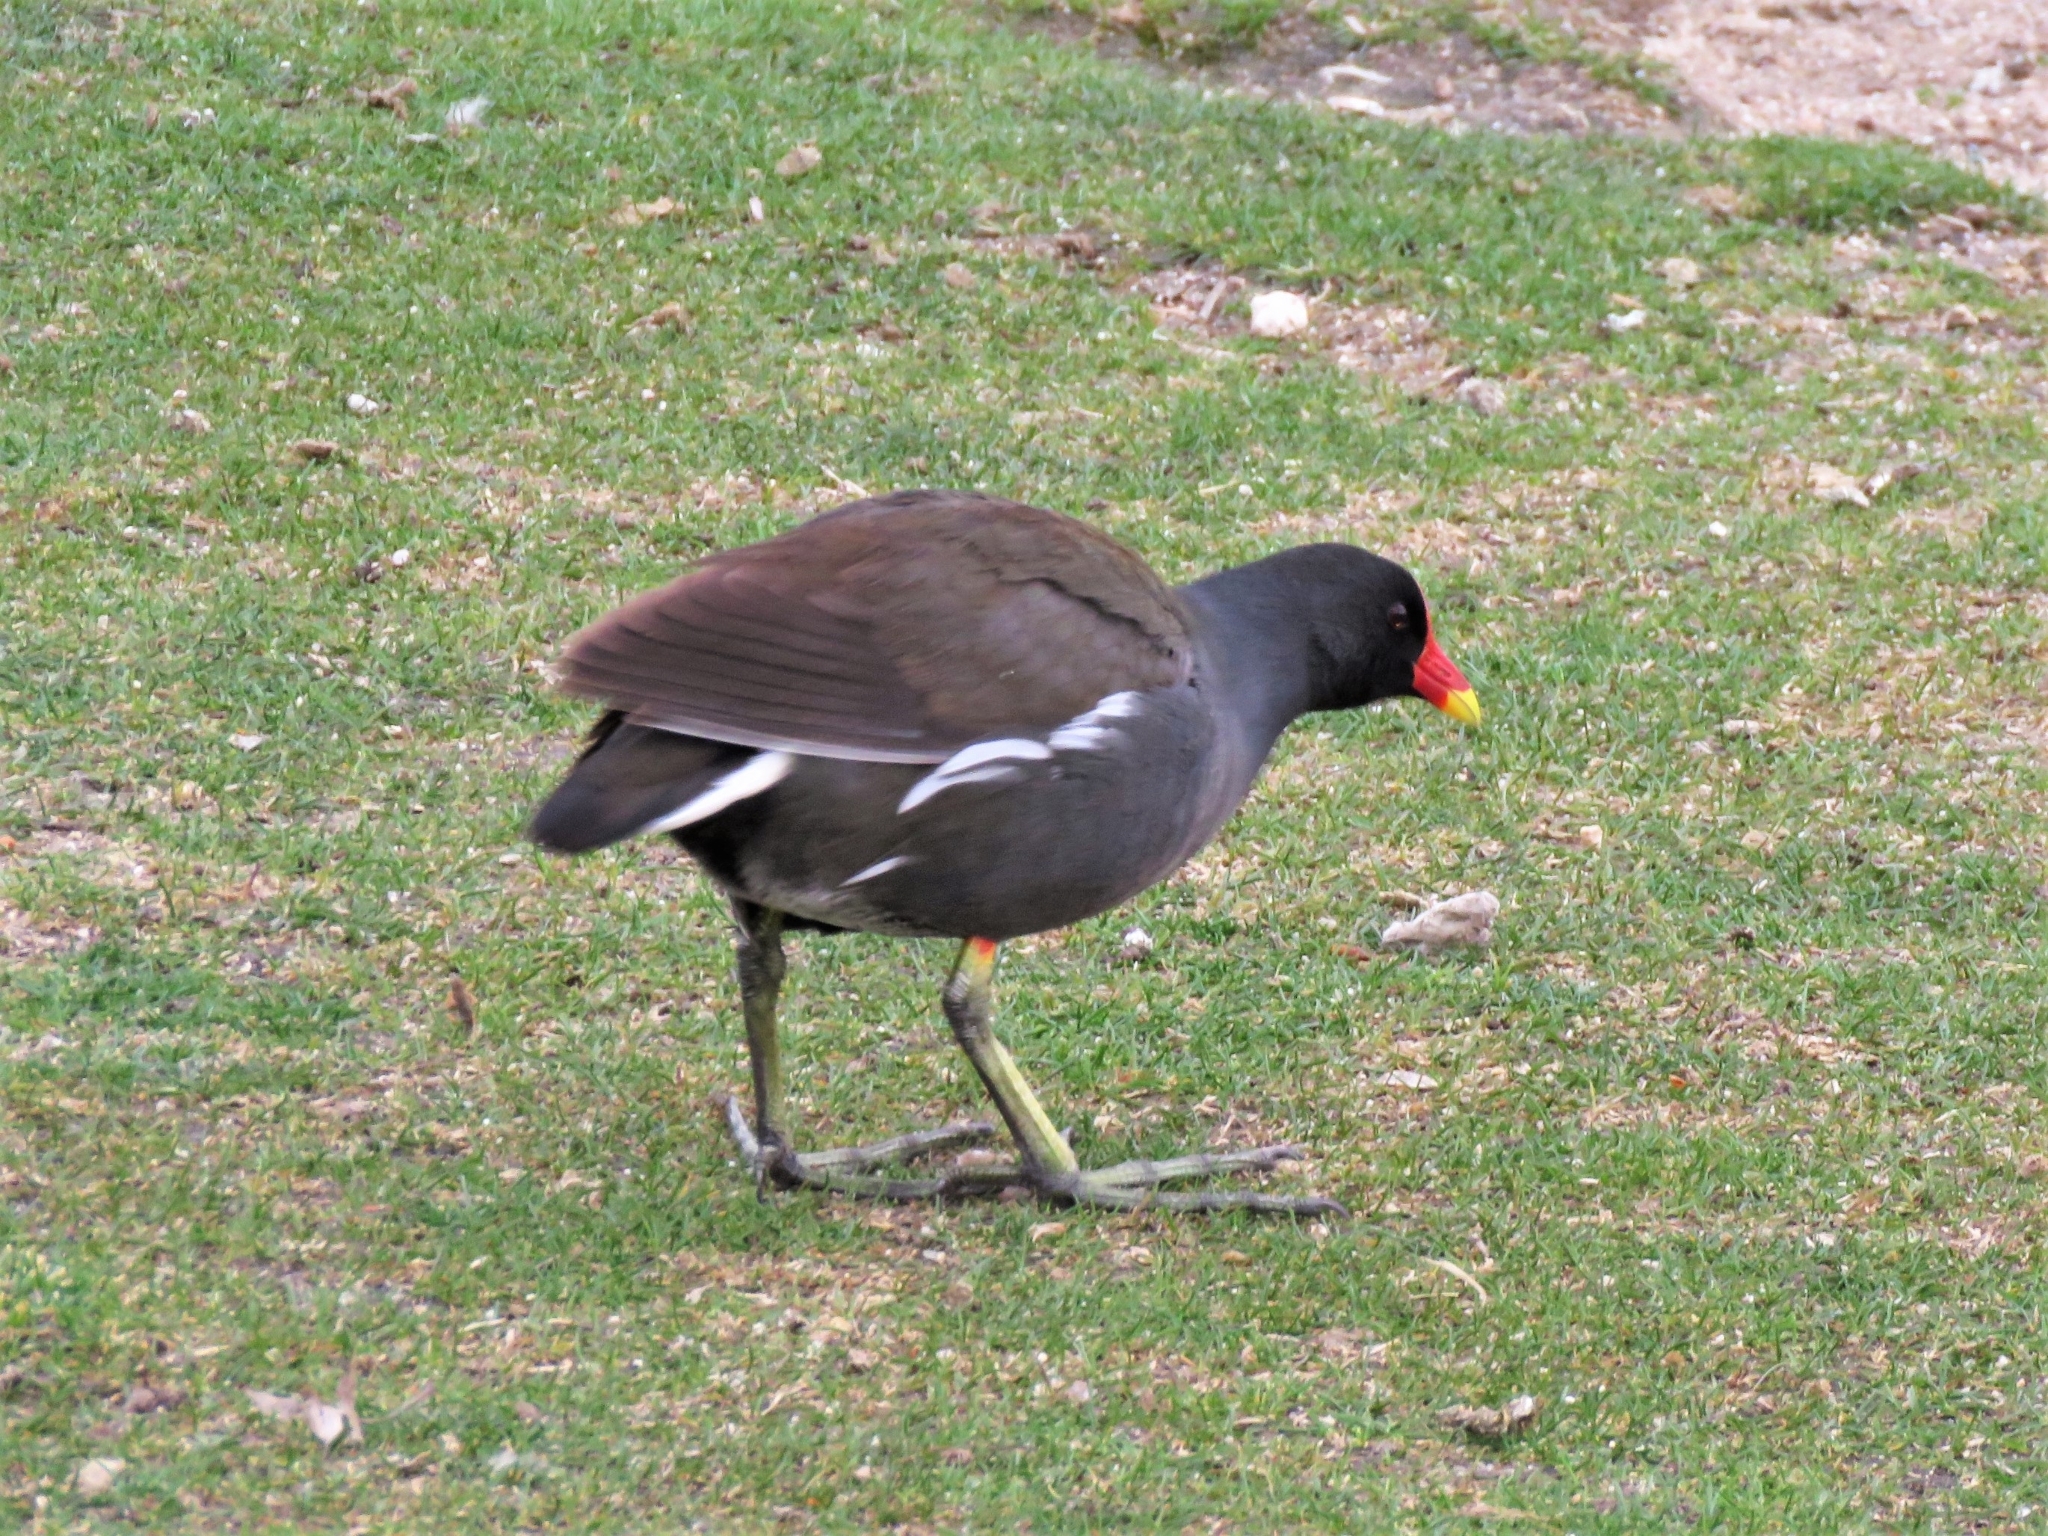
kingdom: Animalia
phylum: Chordata
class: Aves
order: Gruiformes
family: Rallidae
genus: Gallinula
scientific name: Gallinula chloropus
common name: Common moorhen
